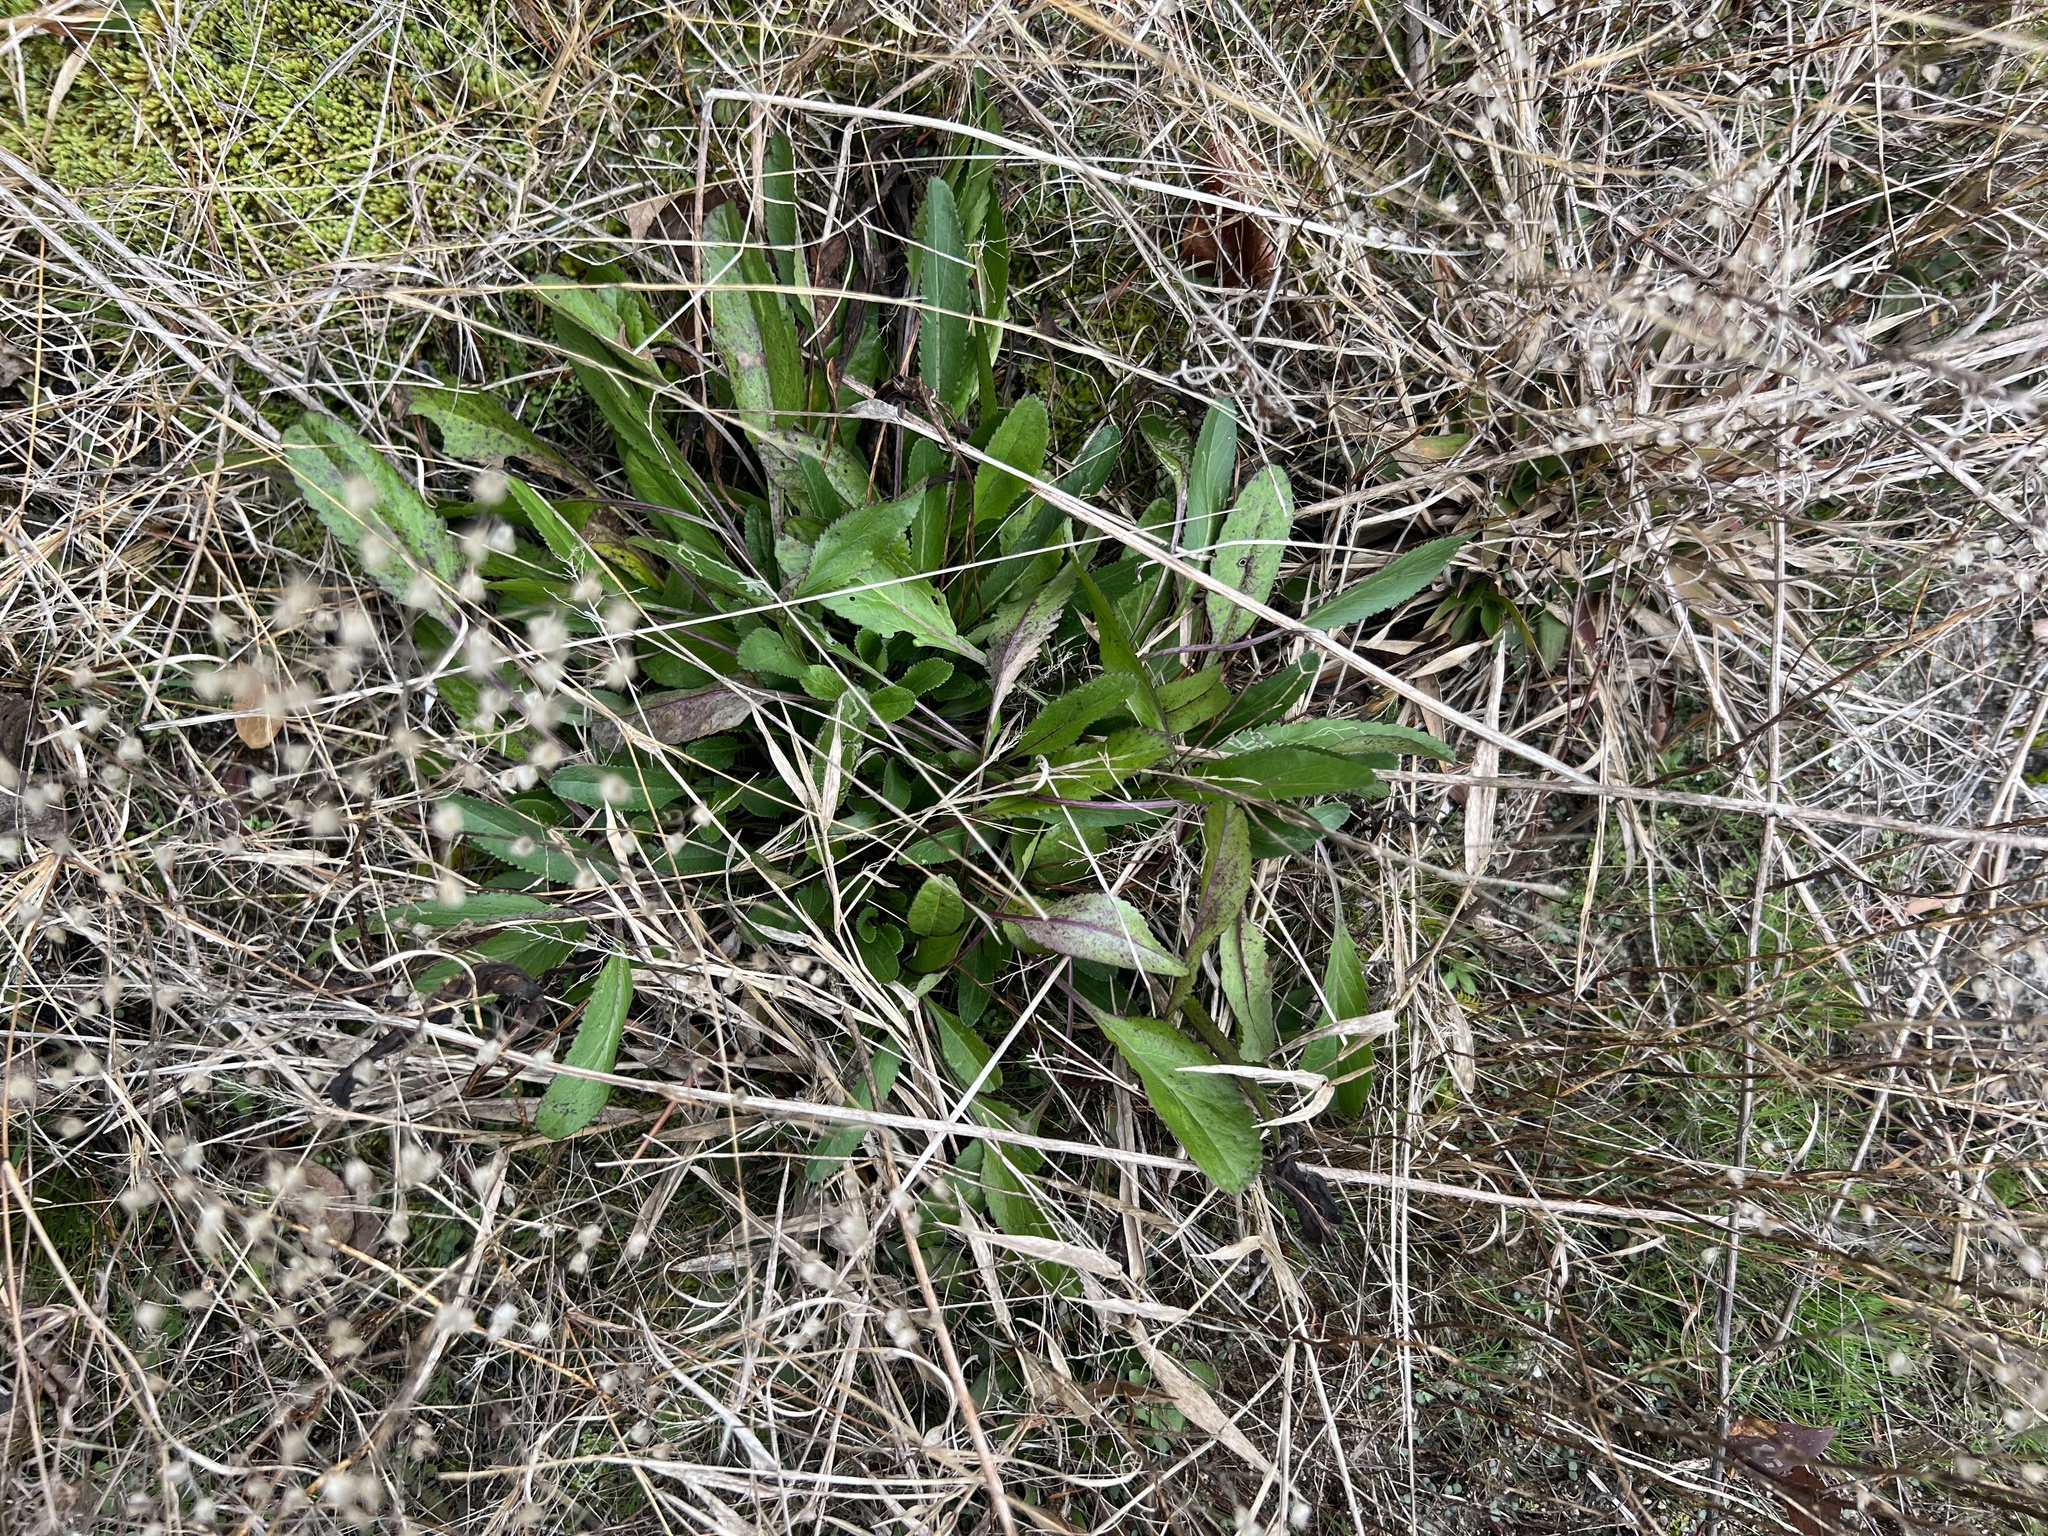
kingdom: Plantae
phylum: Tracheophyta
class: Magnoliopsida
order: Asterales
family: Asteraceae
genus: Packera
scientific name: Packera anonyma
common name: Small ragwort
